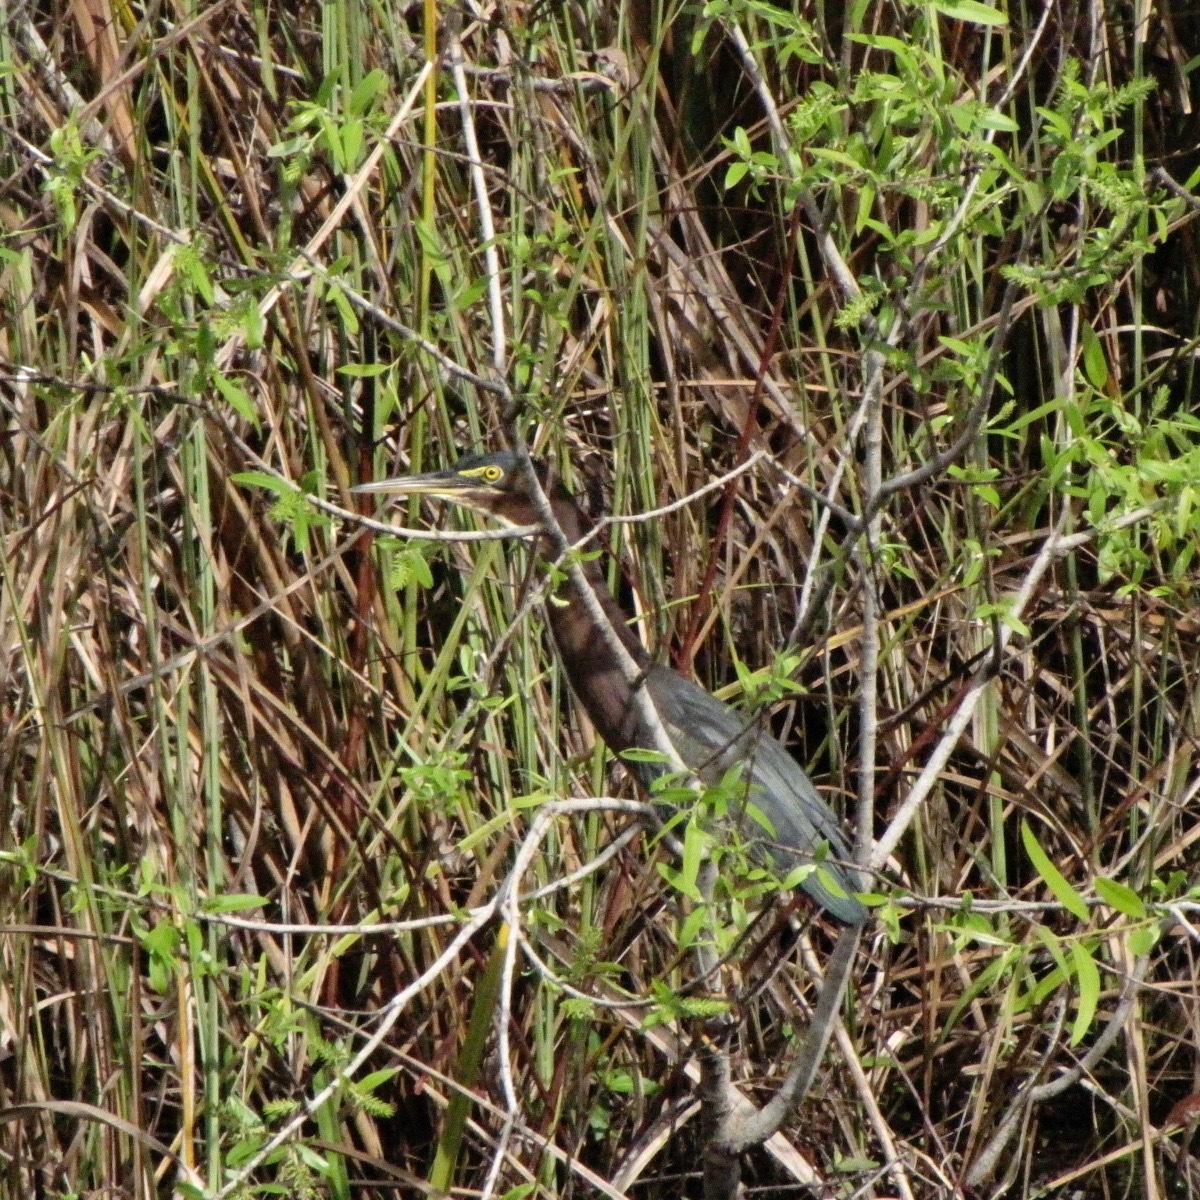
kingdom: Animalia
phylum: Chordata
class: Aves
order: Pelecaniformes
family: Ardeidae
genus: Butorides
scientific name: Butorides virescens
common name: Green heron
